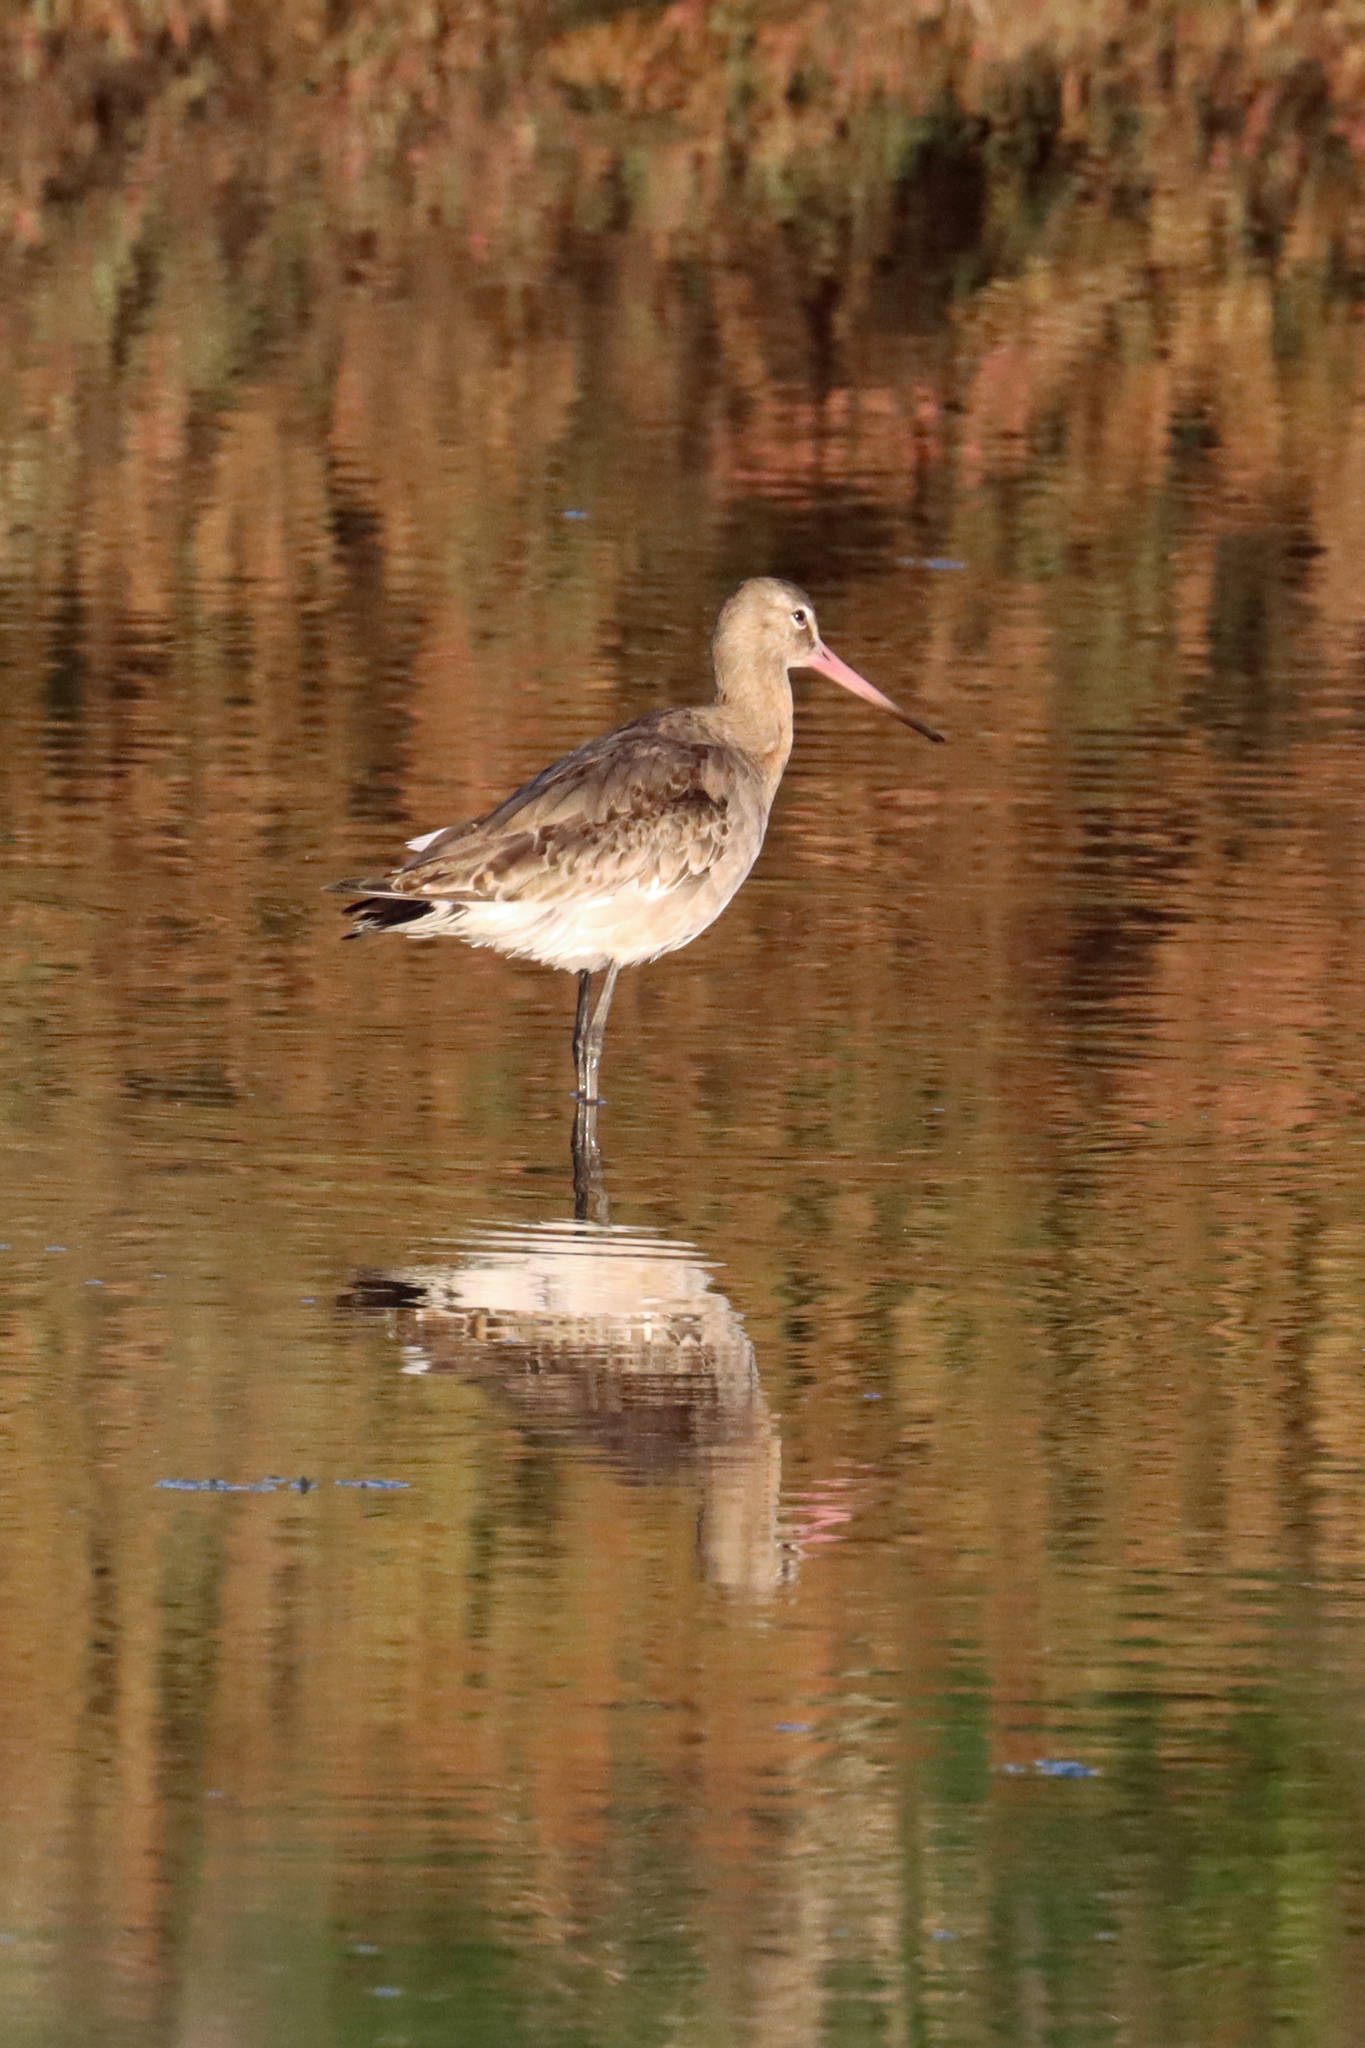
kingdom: Animalia
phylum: Chordata
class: Aves
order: Charadriiformes
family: Scolopacidae
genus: Limosa
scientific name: Limosa limosa
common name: Black-tailed godwit
